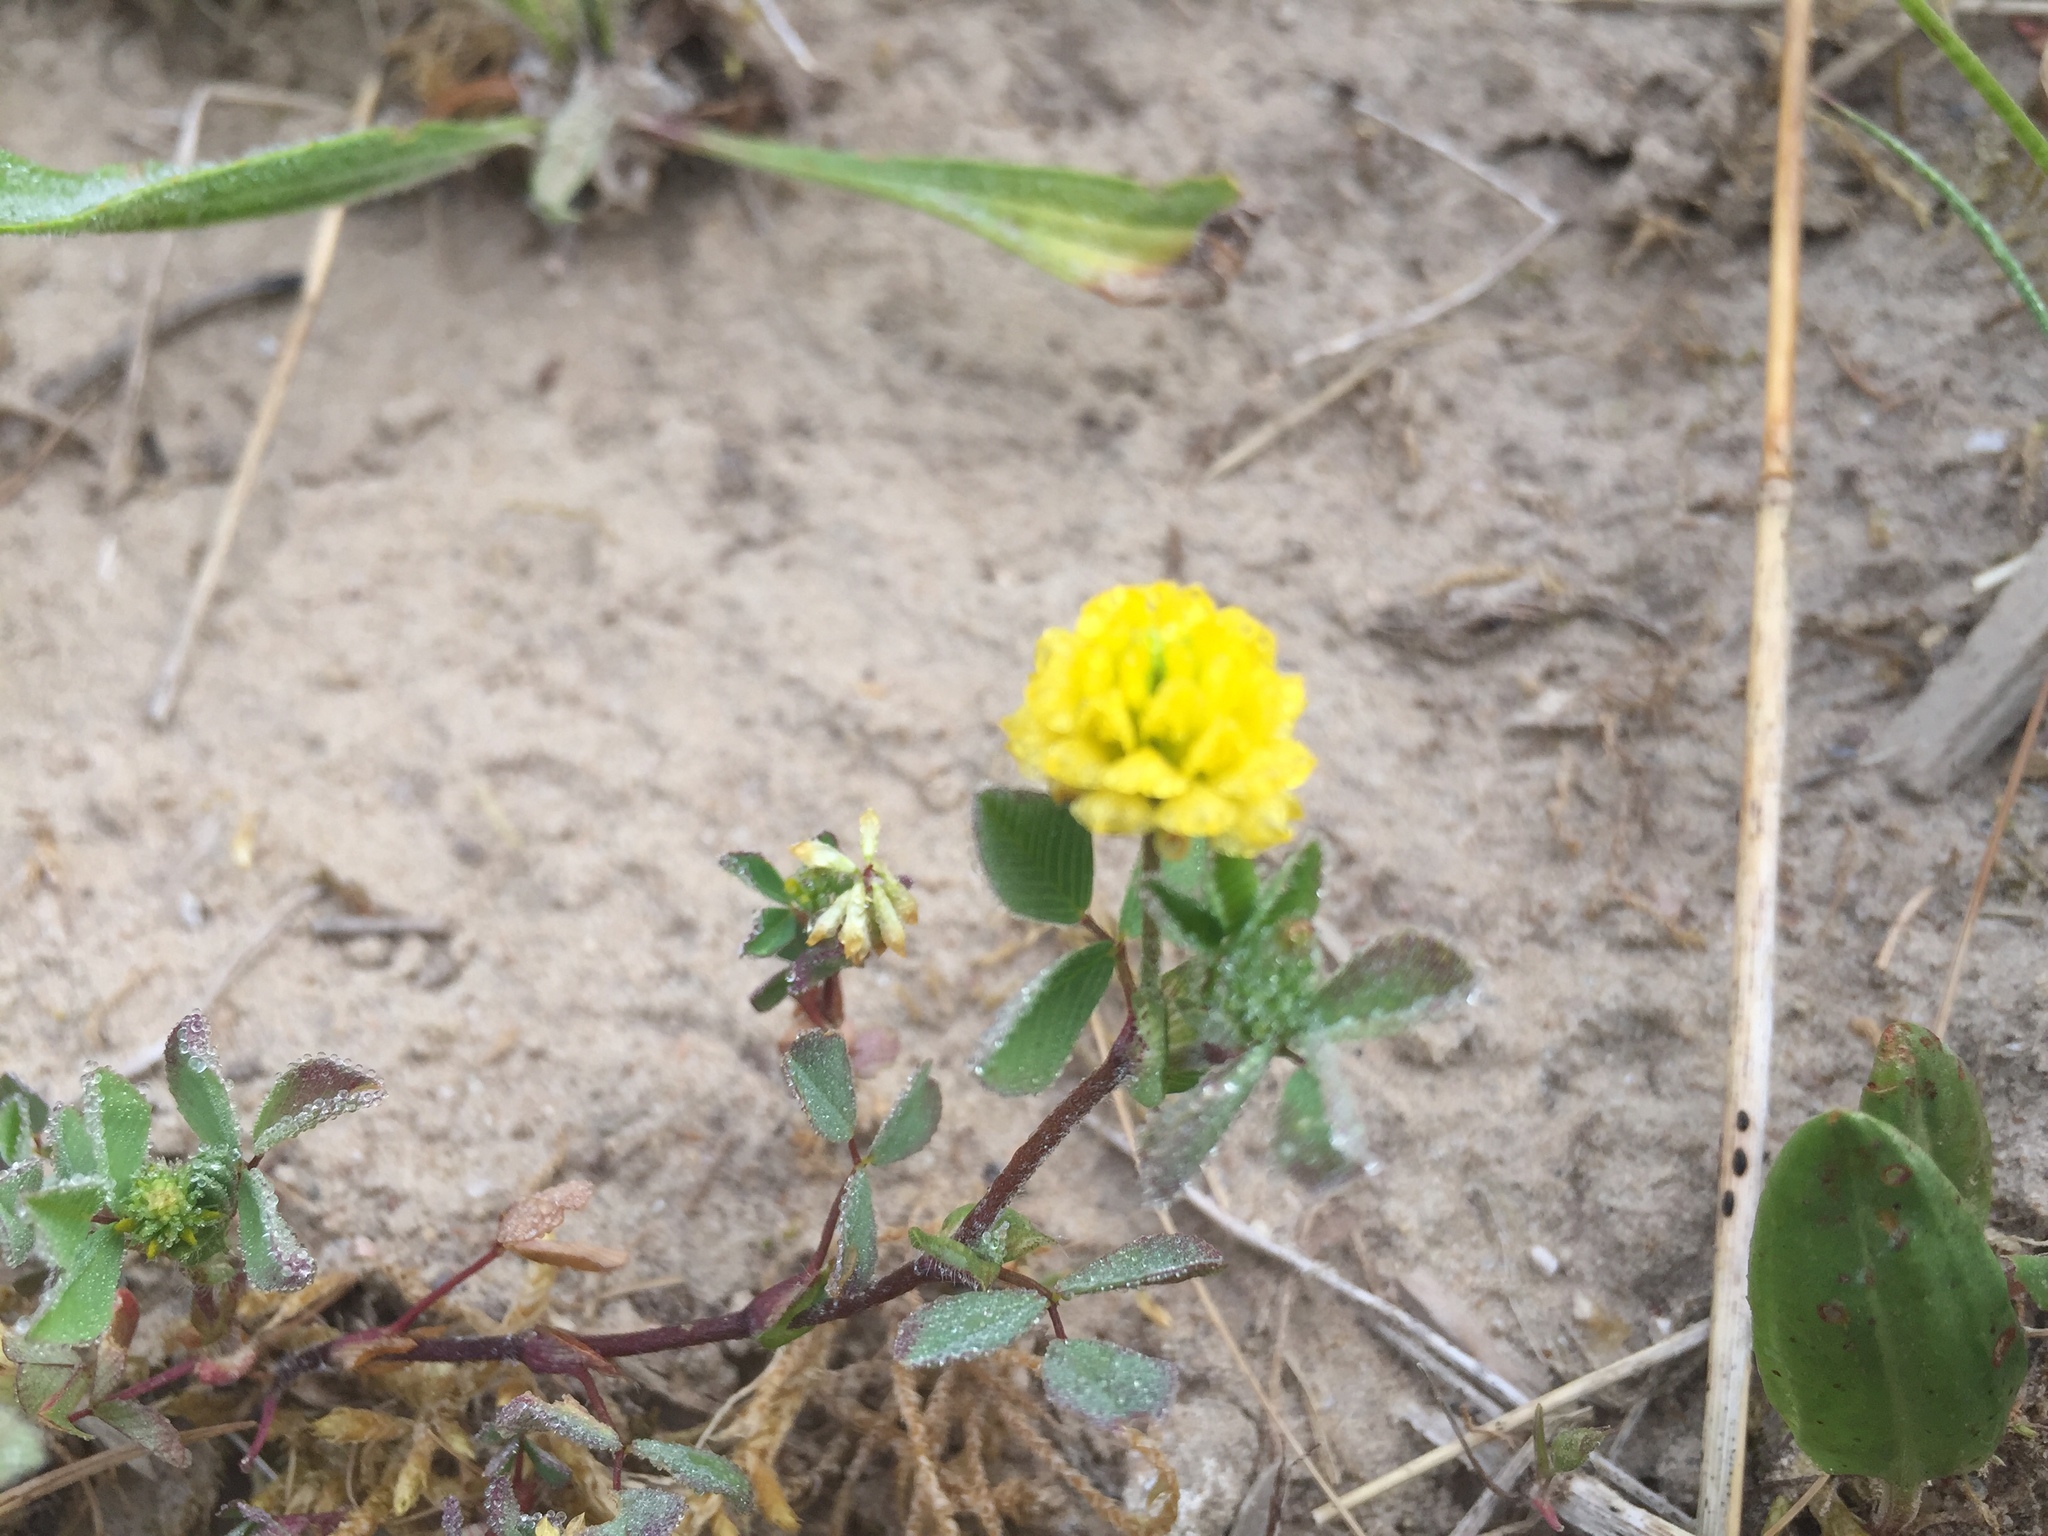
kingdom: Plantae
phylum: Tracheophyta
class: Magnoliopsida
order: Fabales
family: Fabaceae
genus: Trifolium
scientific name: Trifolium campestre
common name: Field clover
